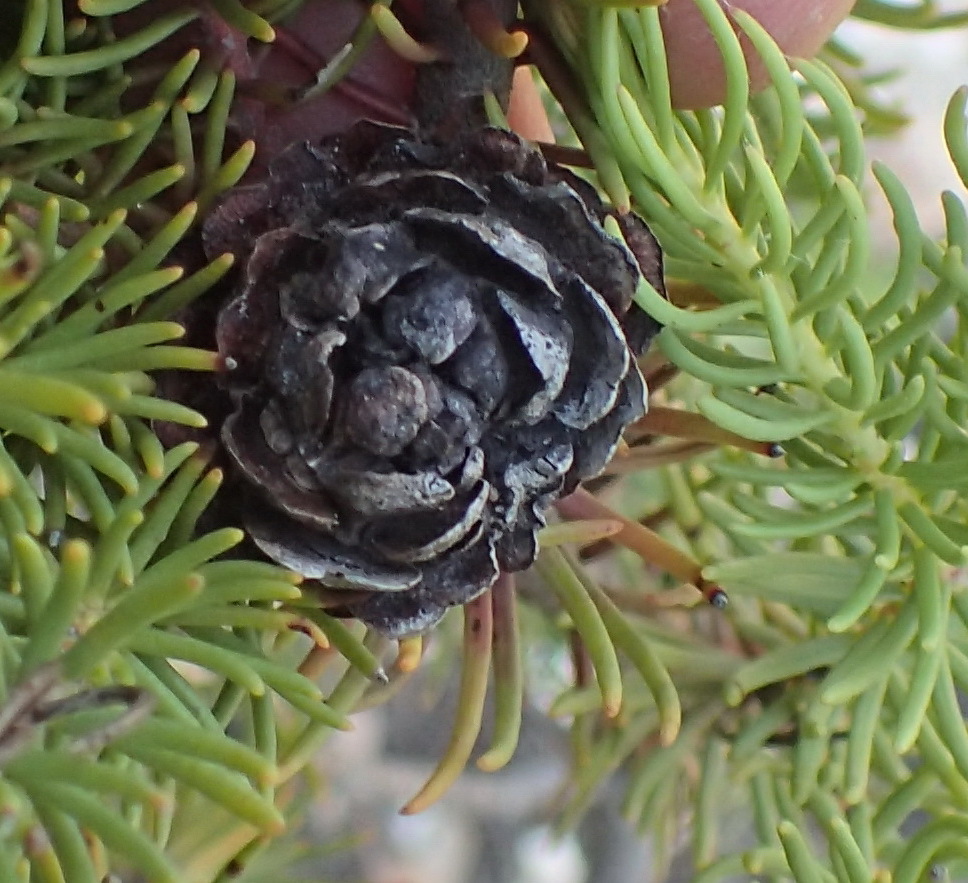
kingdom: Plantae
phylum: Tracheophyta
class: Magnoliopsida
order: Proteales
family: Proteaceae
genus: Leucadendron
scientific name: Leucadendron teretifolium
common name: Needle-leaf conebush
